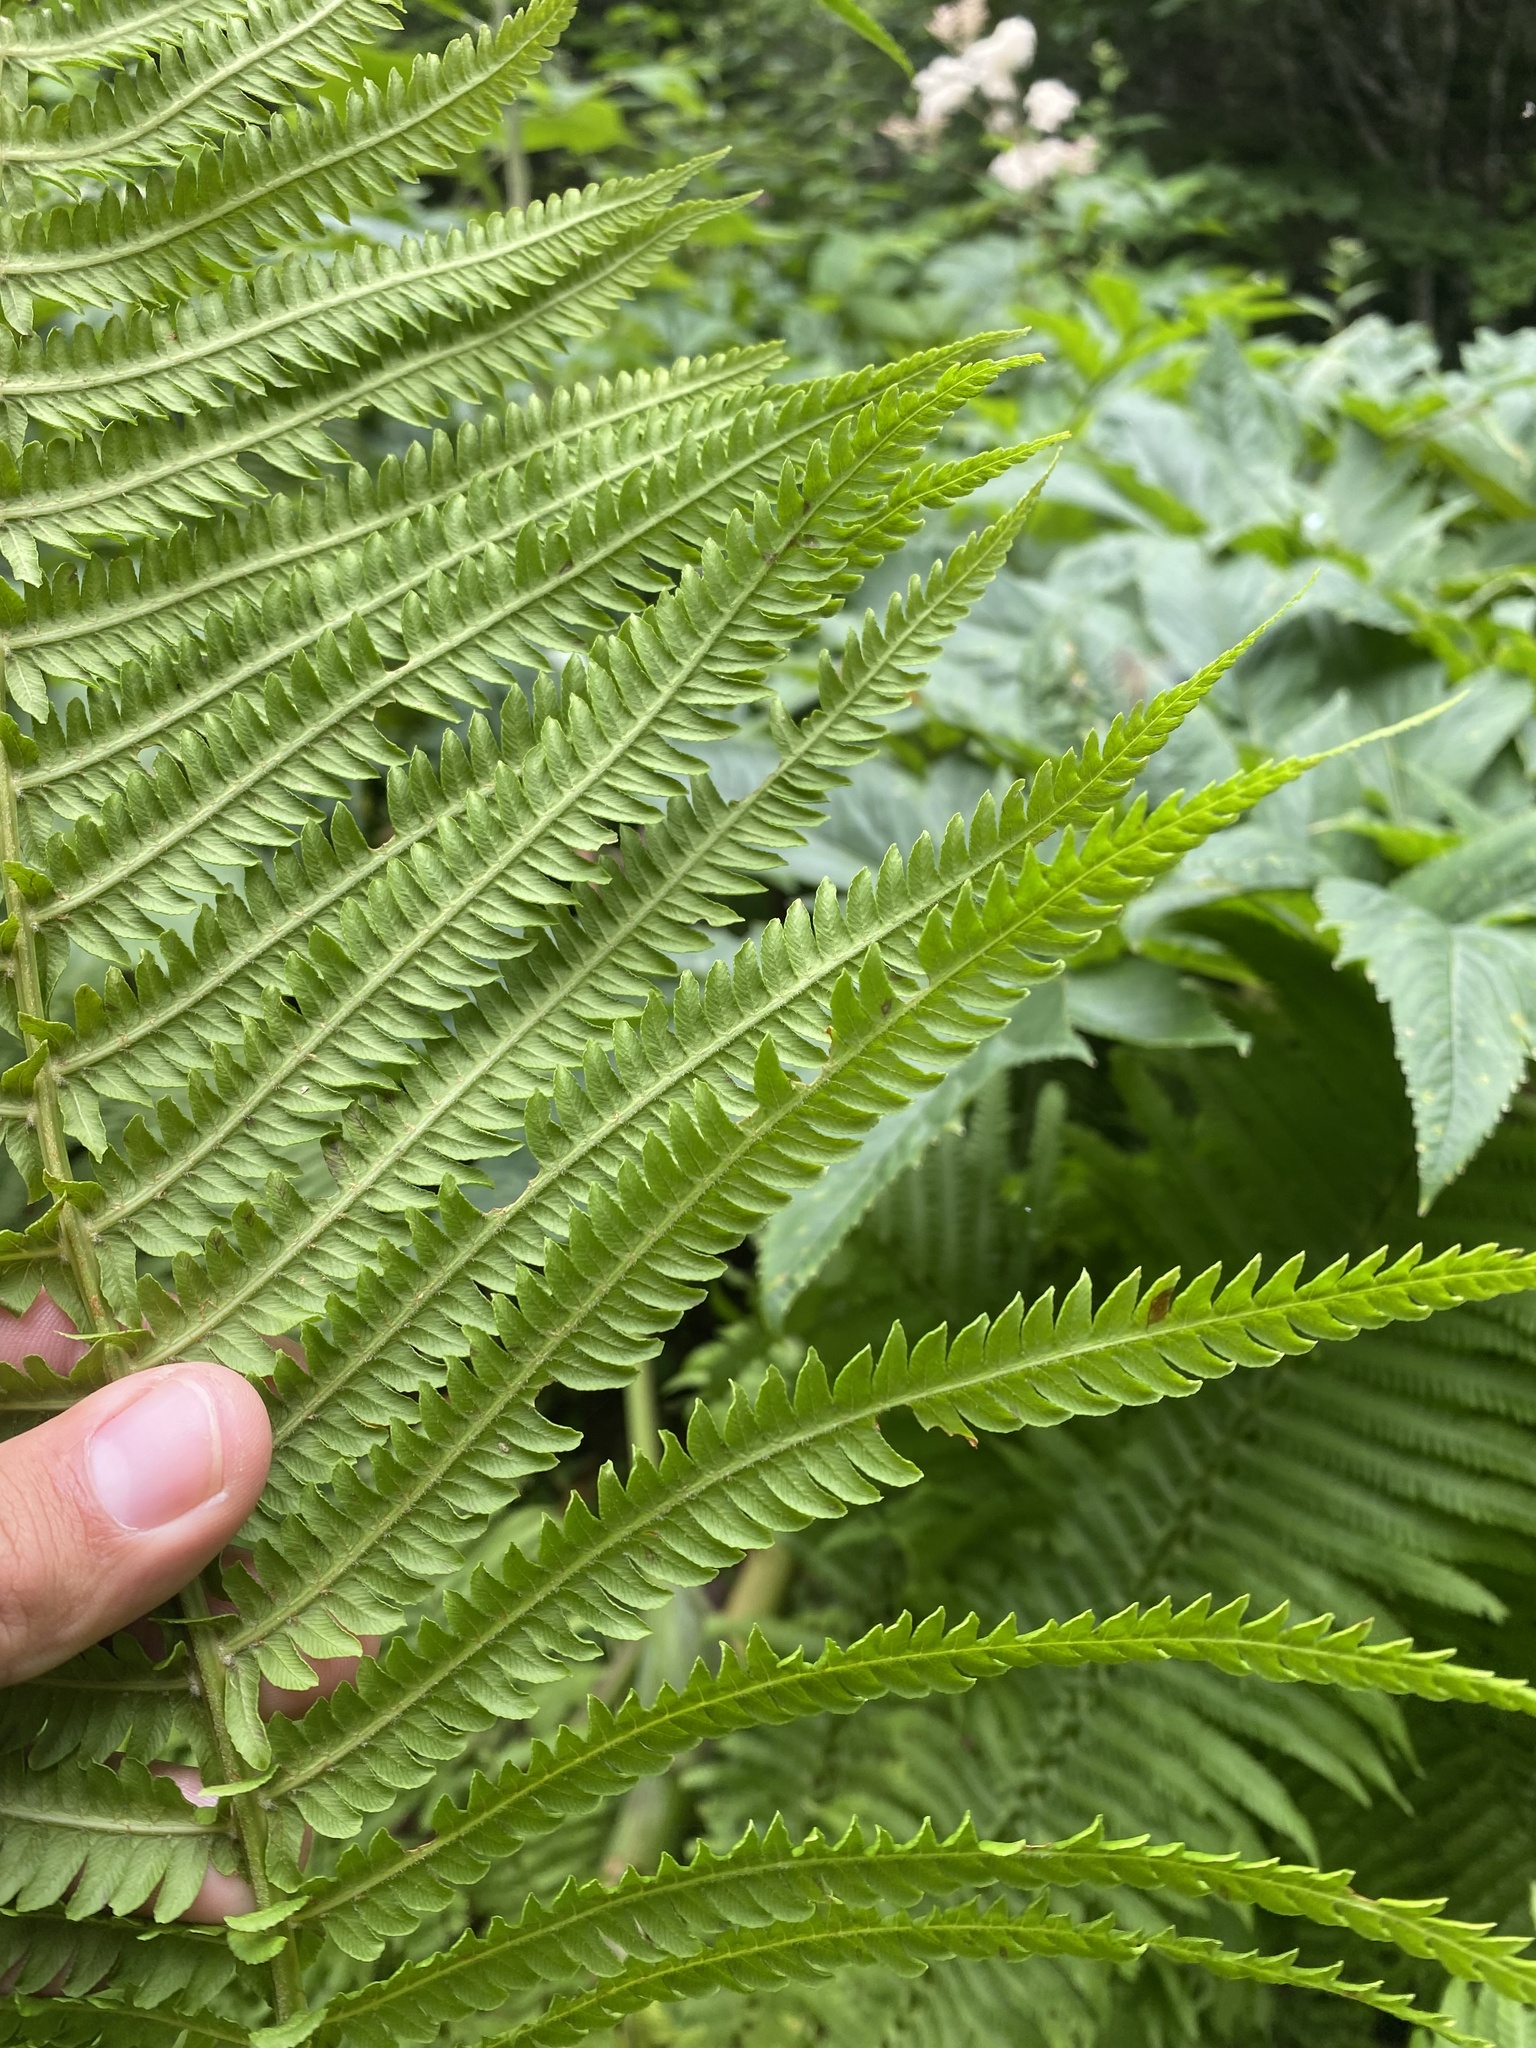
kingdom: Plantae
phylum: Tracheophyta
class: Polypodiopsida
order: Polypodiales
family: Onocleaceae
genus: Matteuccia
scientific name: Matteuccia struthiopteris
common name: Ostrich fern
